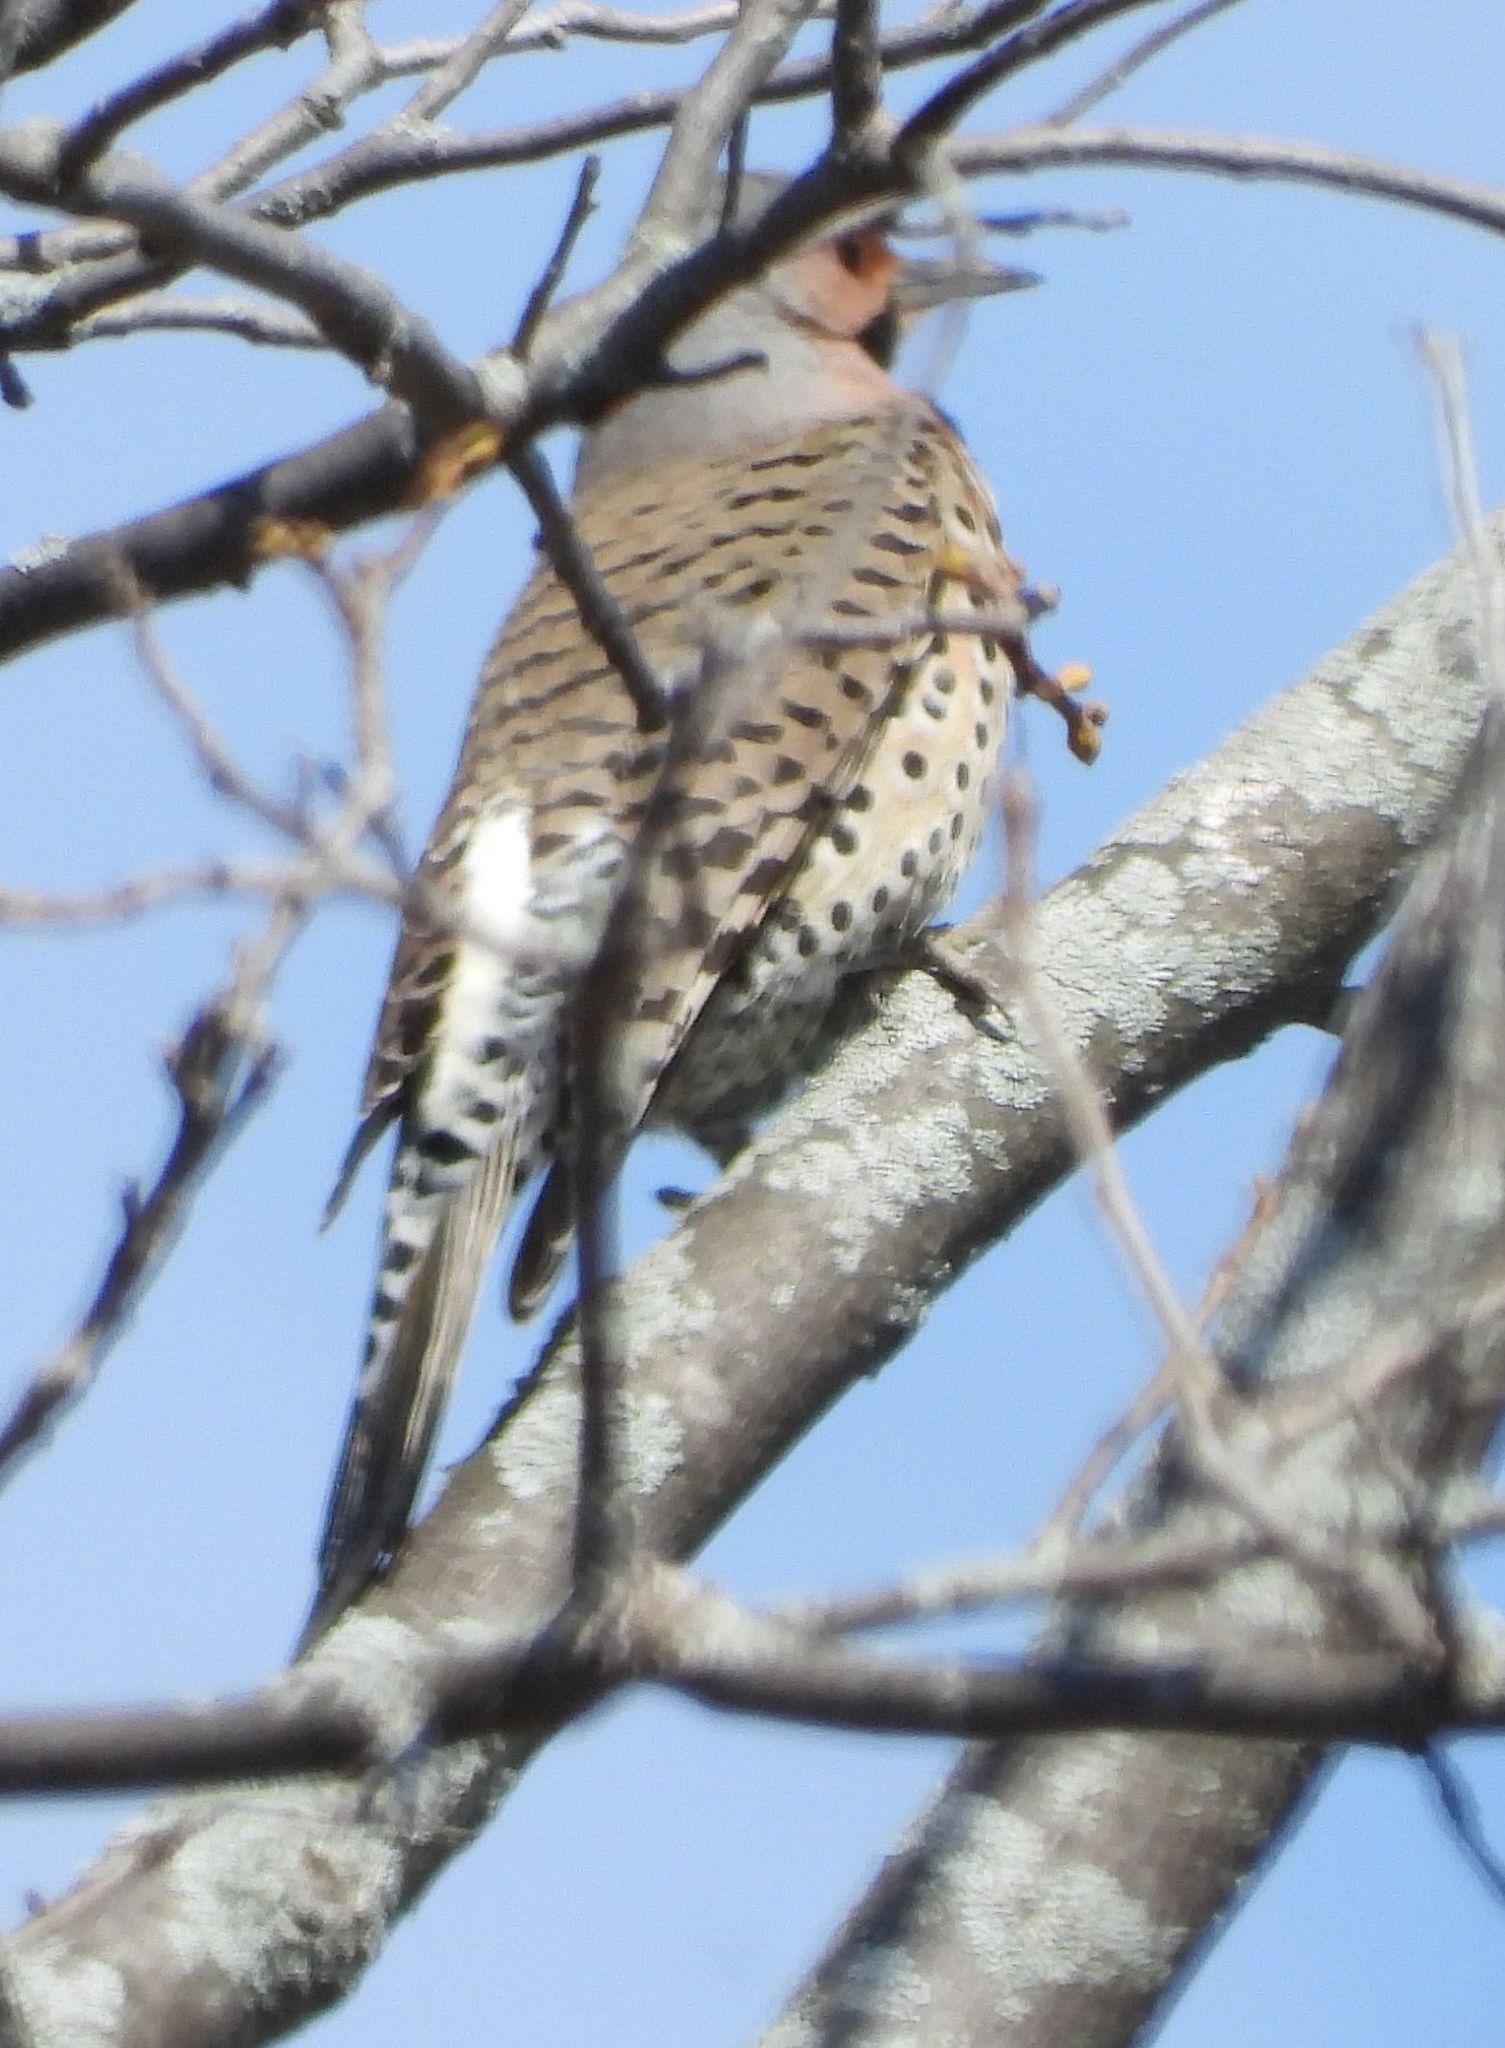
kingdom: Animalia
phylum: Chordata
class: Aves
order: Piciformes
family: Picidae
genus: Colaptes
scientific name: Colaptes auratus
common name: Northern flicker
